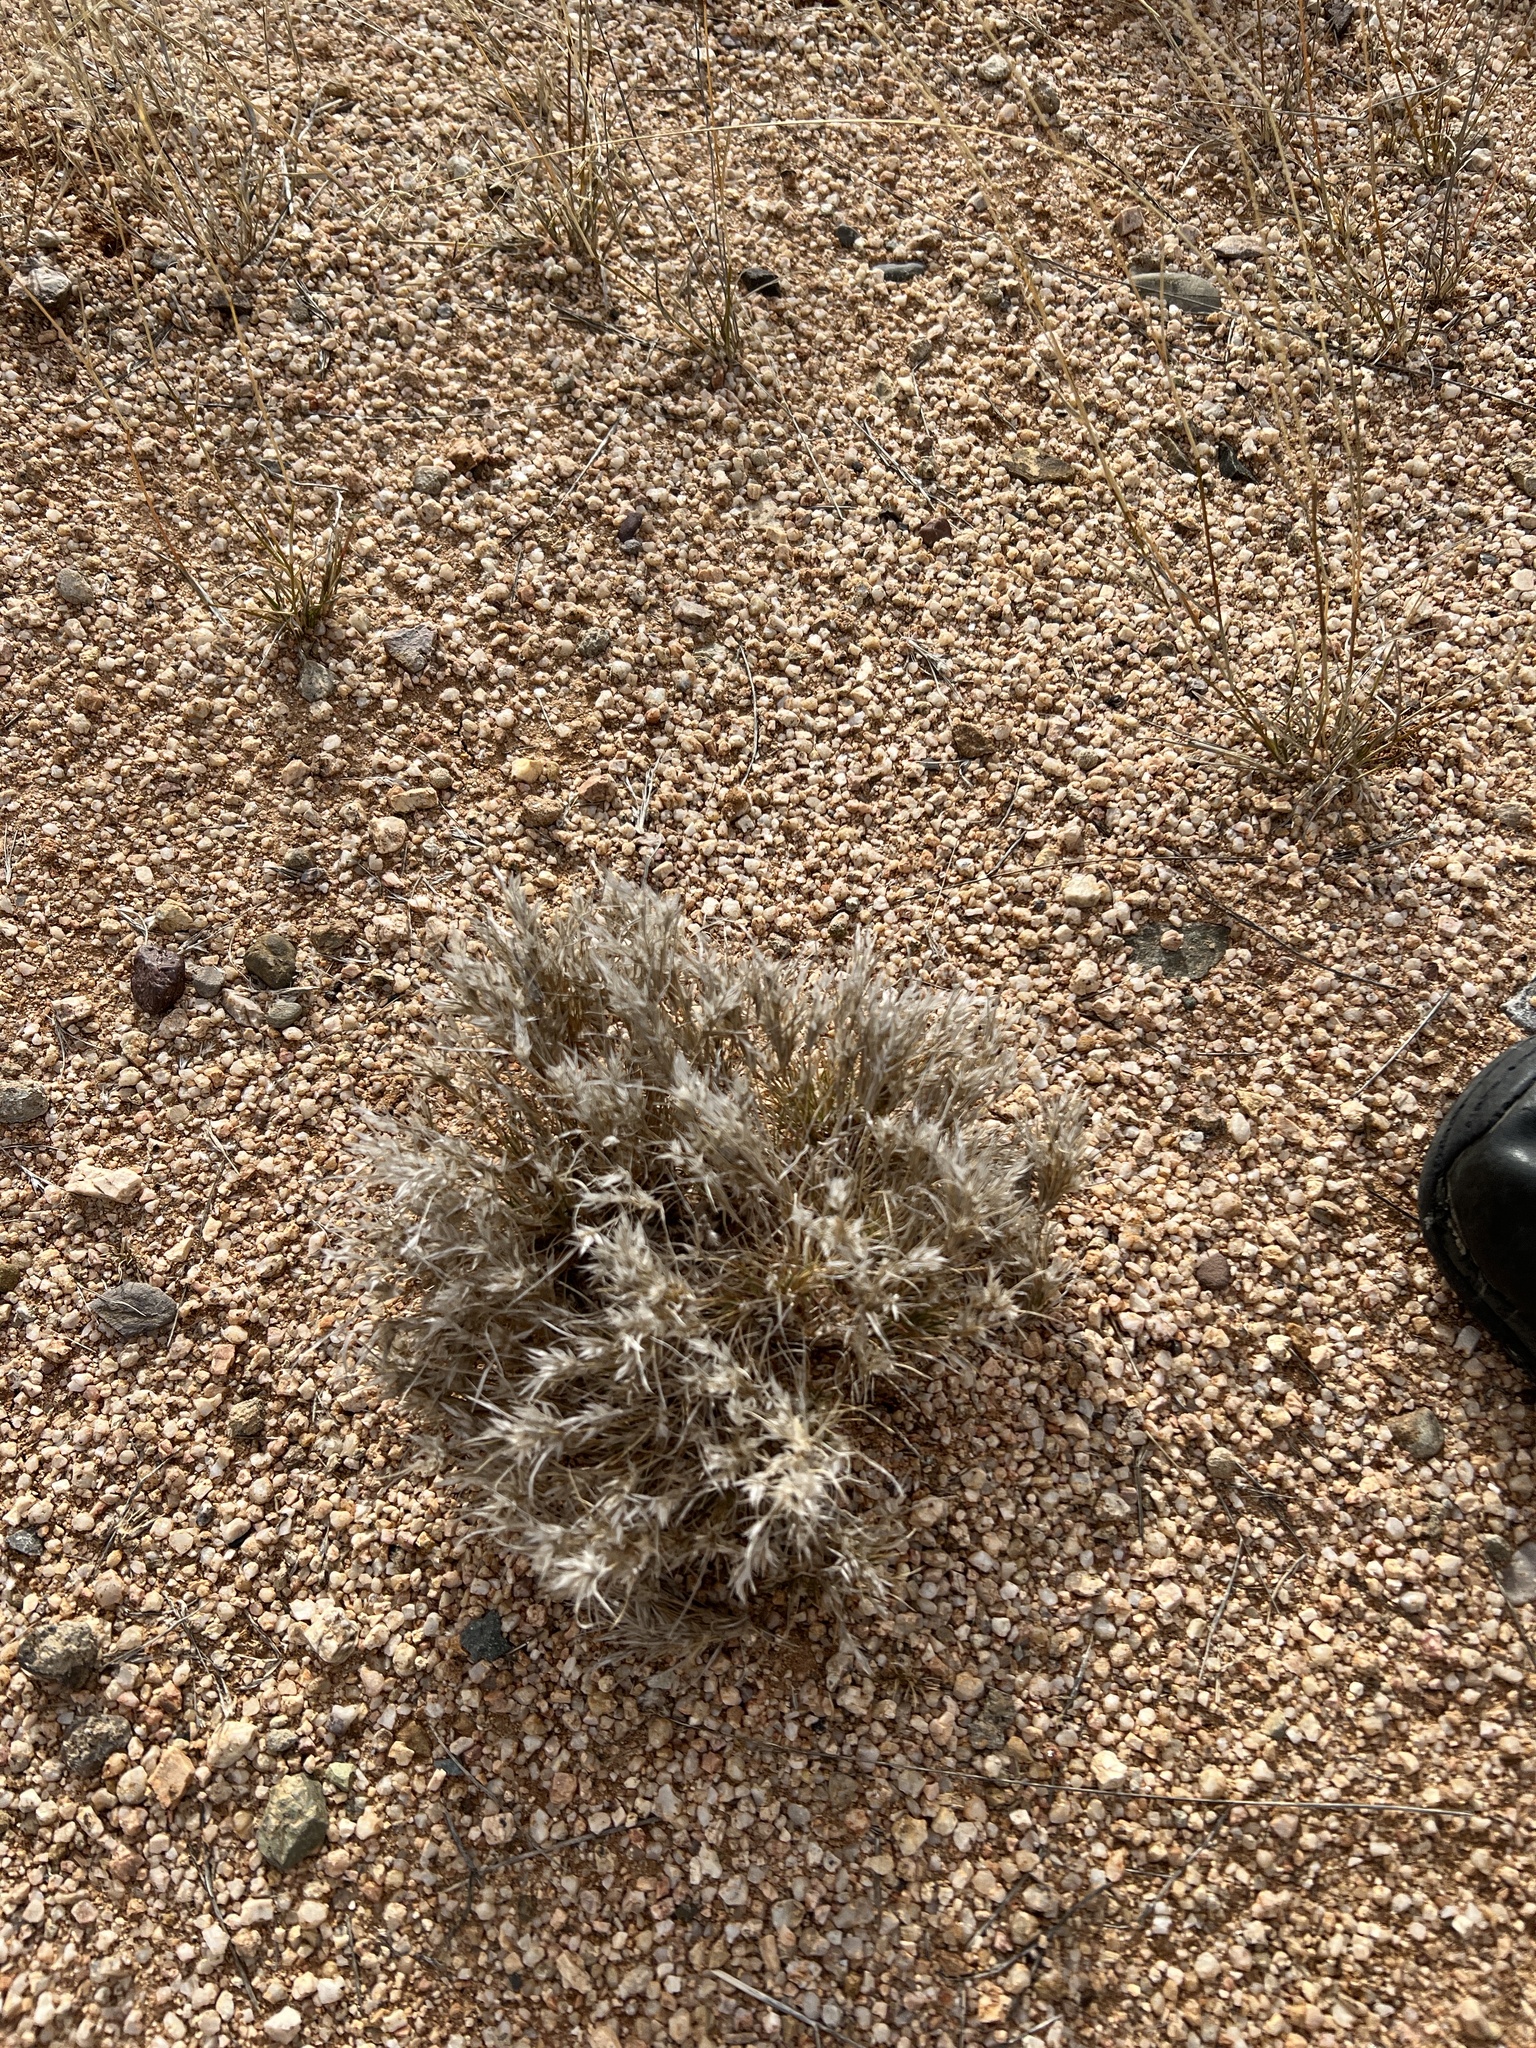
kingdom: Plantae
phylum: Tracheophyta
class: Liliopsida
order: Poales
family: Poaceae
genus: Dasyochloa
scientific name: Dasyochloa pulchella
